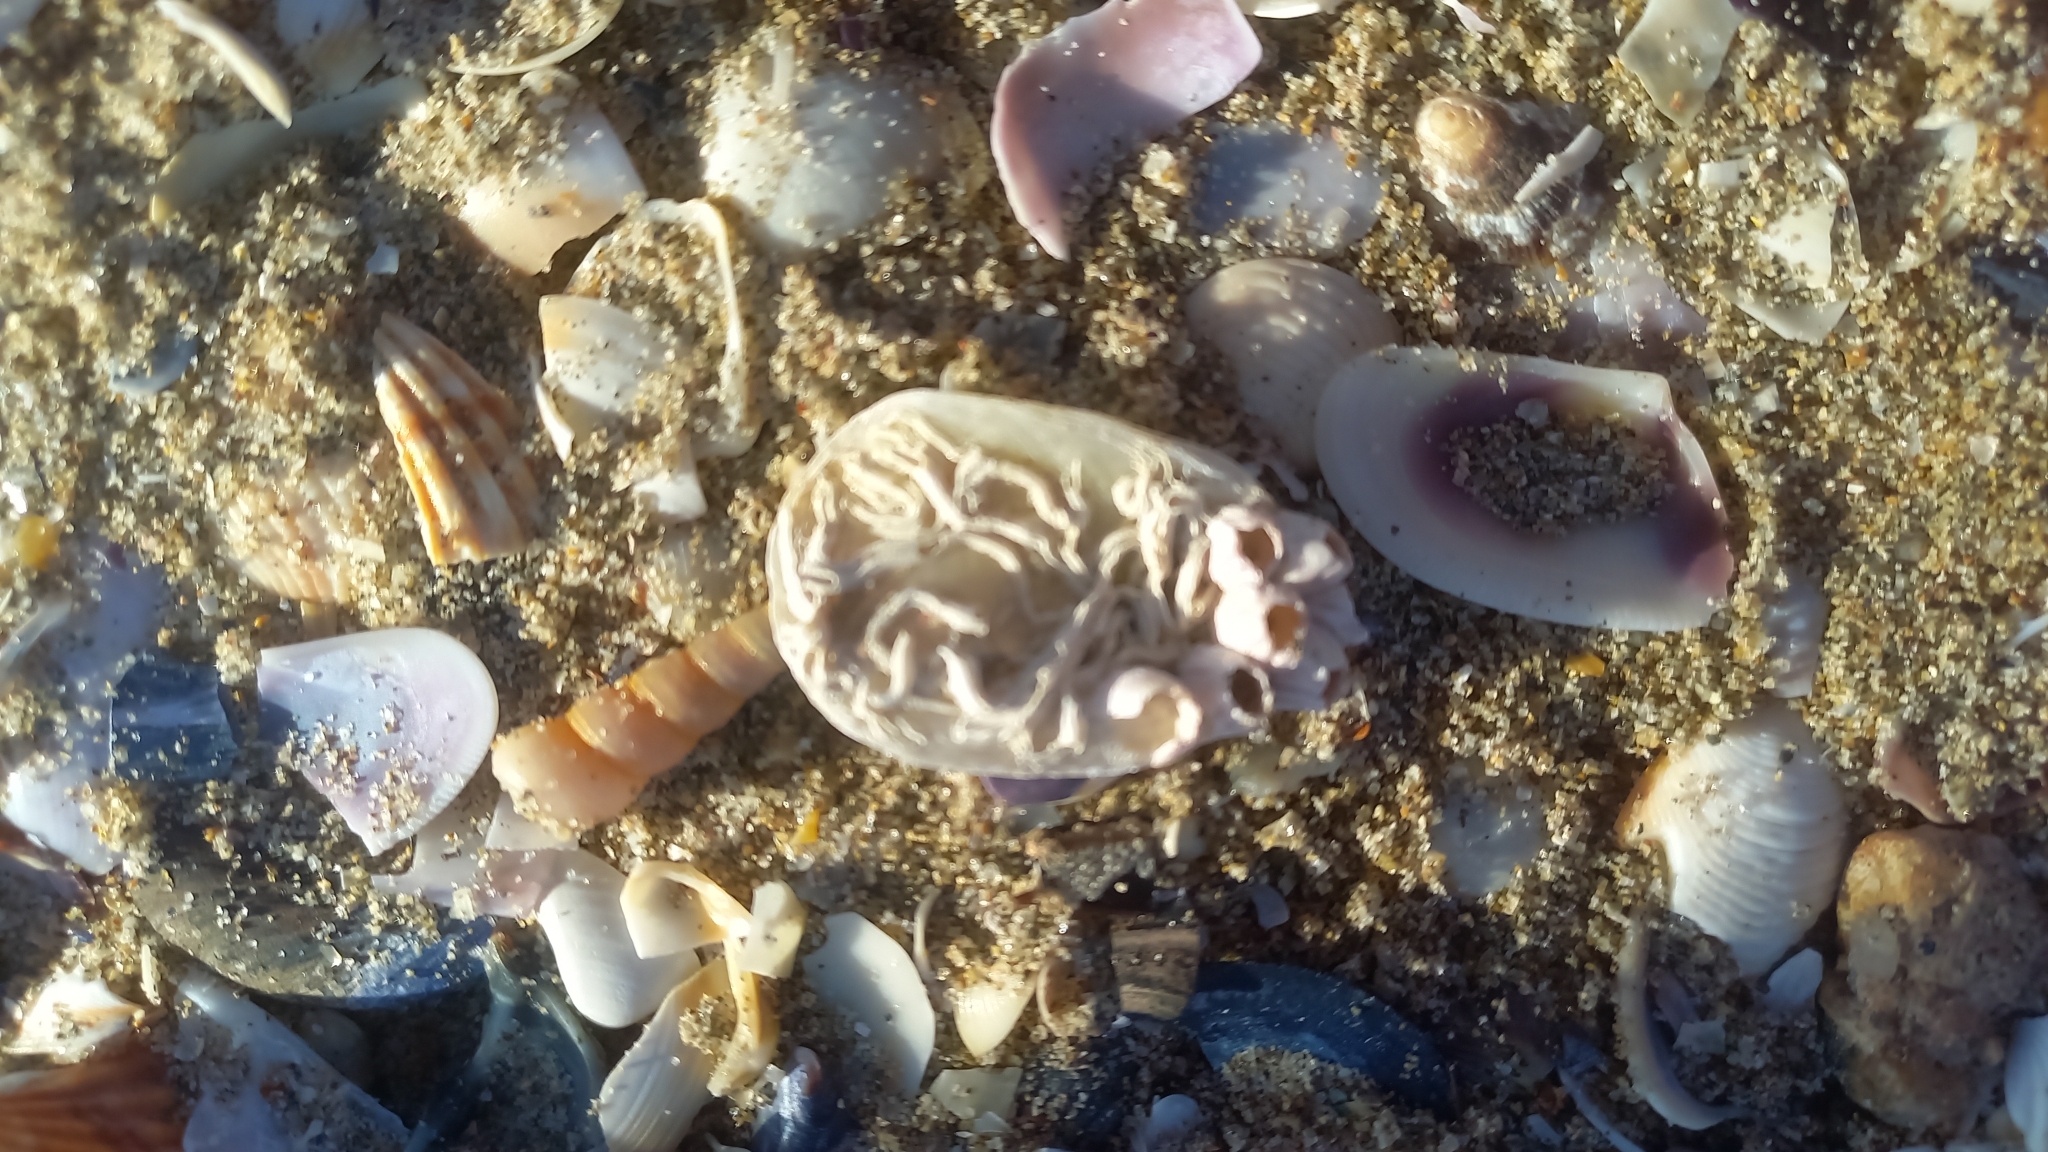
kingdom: Animalia
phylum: Mollusca
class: Bivalvia
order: Pectinida
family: Anomiidae
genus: Anomia
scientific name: Anomia ephippium
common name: Saddle oyster
